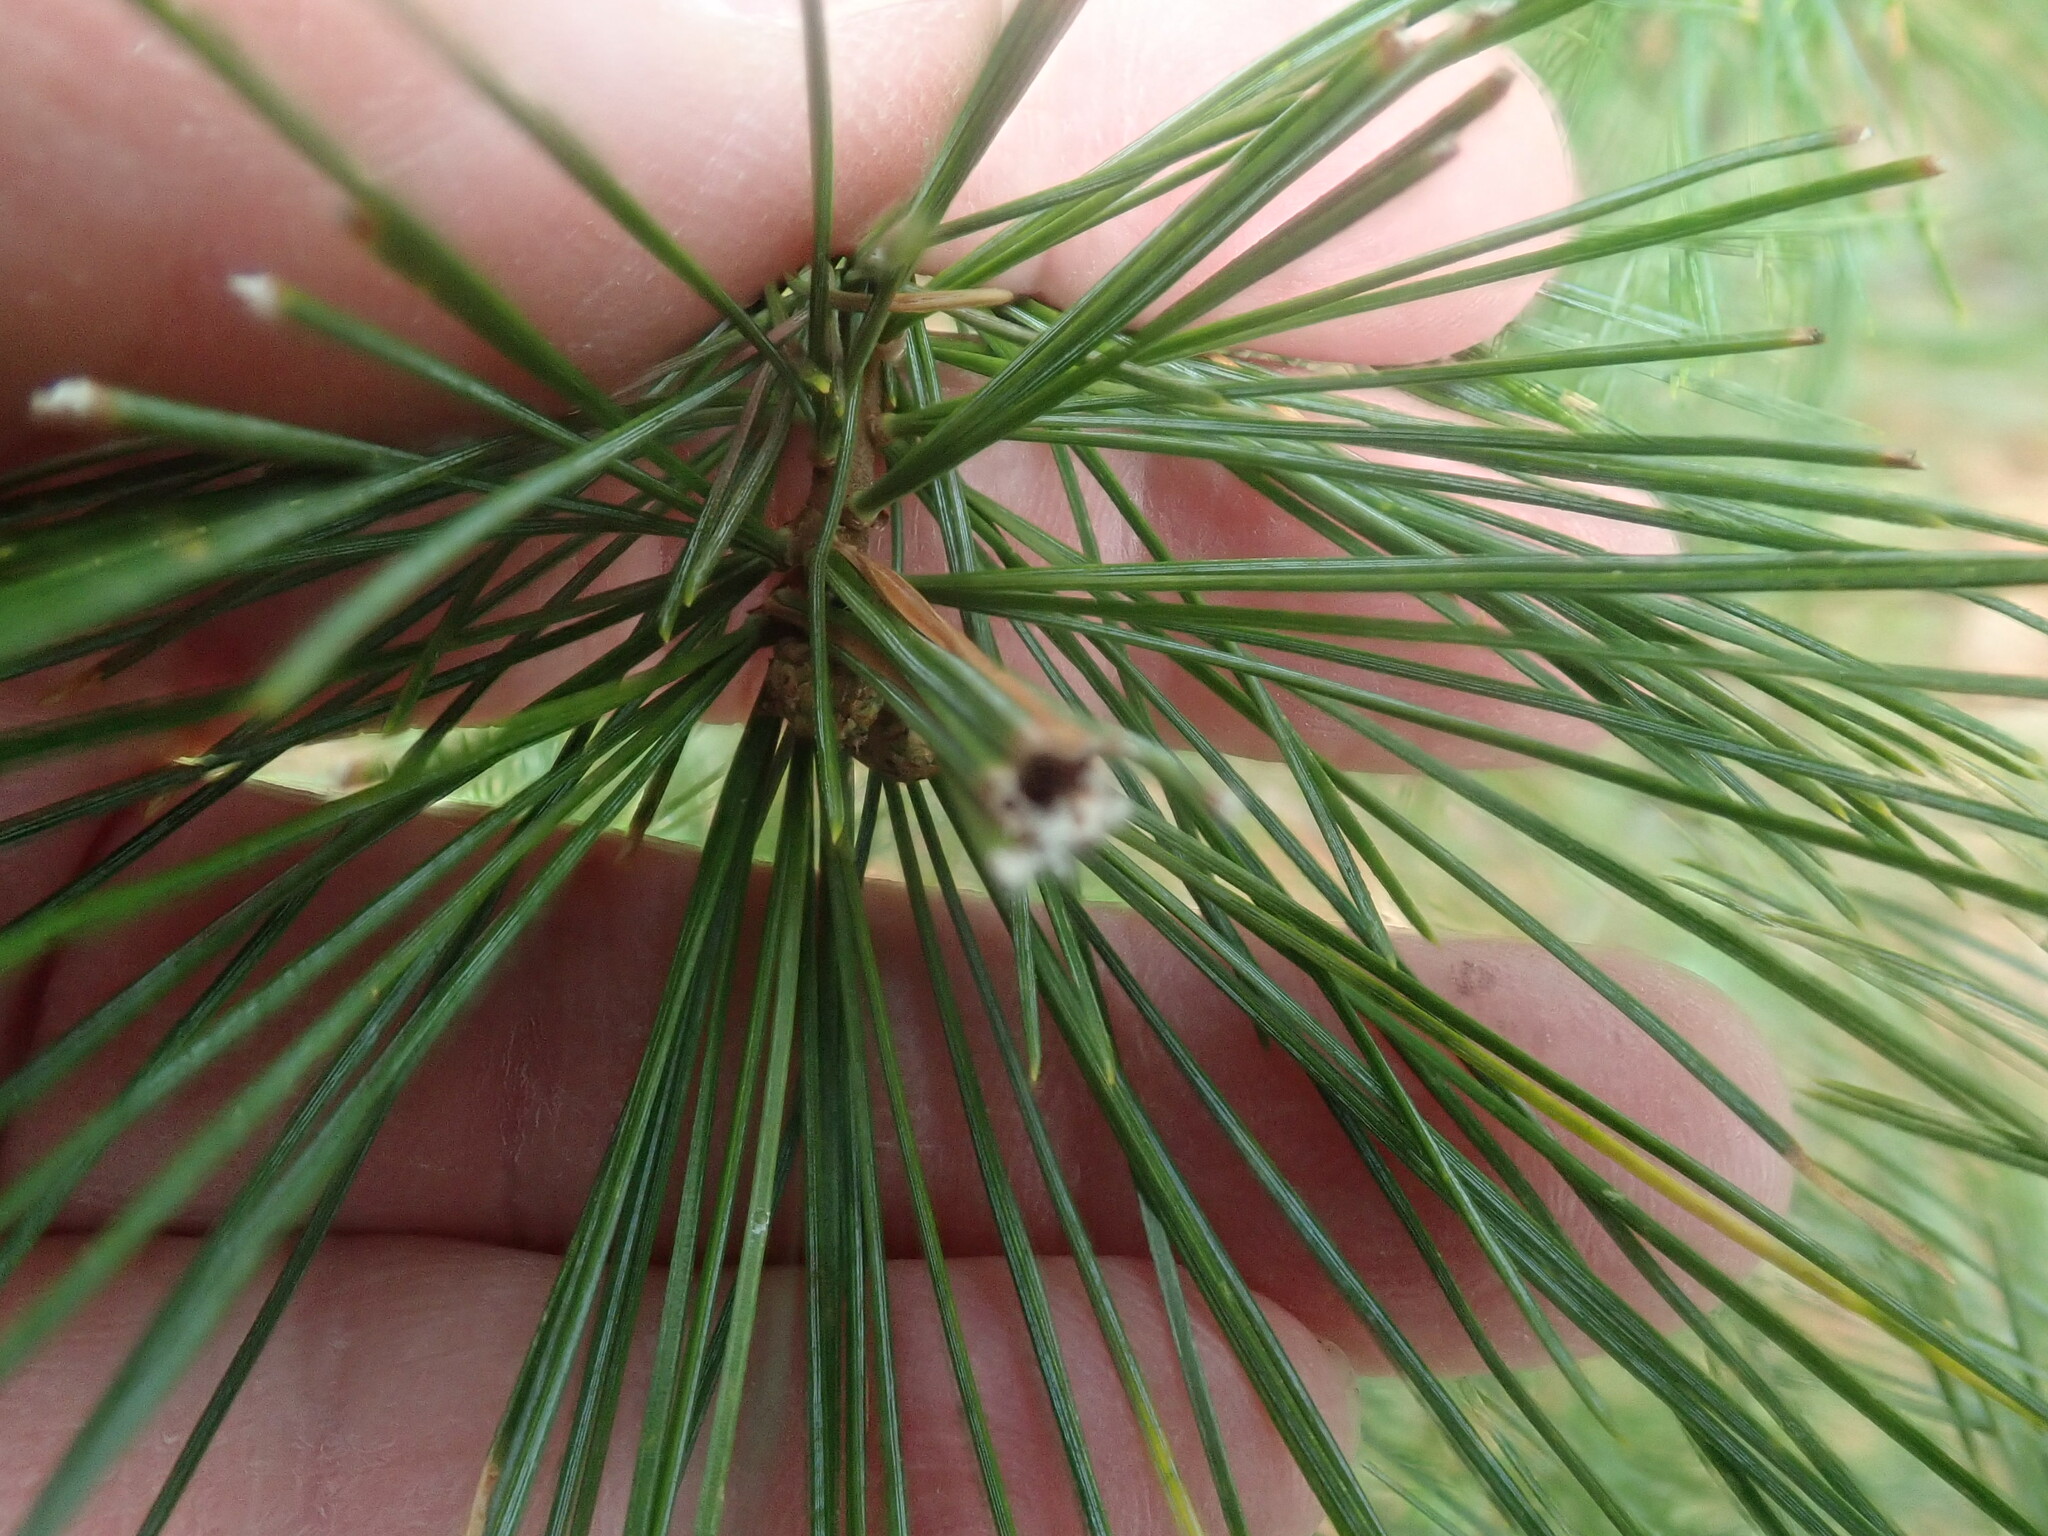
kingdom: Animalia
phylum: Arthropoda
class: Insecta
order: Lepidoptera
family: Tortricidae
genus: Argyrotaenia
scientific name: Argyrotaenia pinatubana
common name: Pine tube moth
